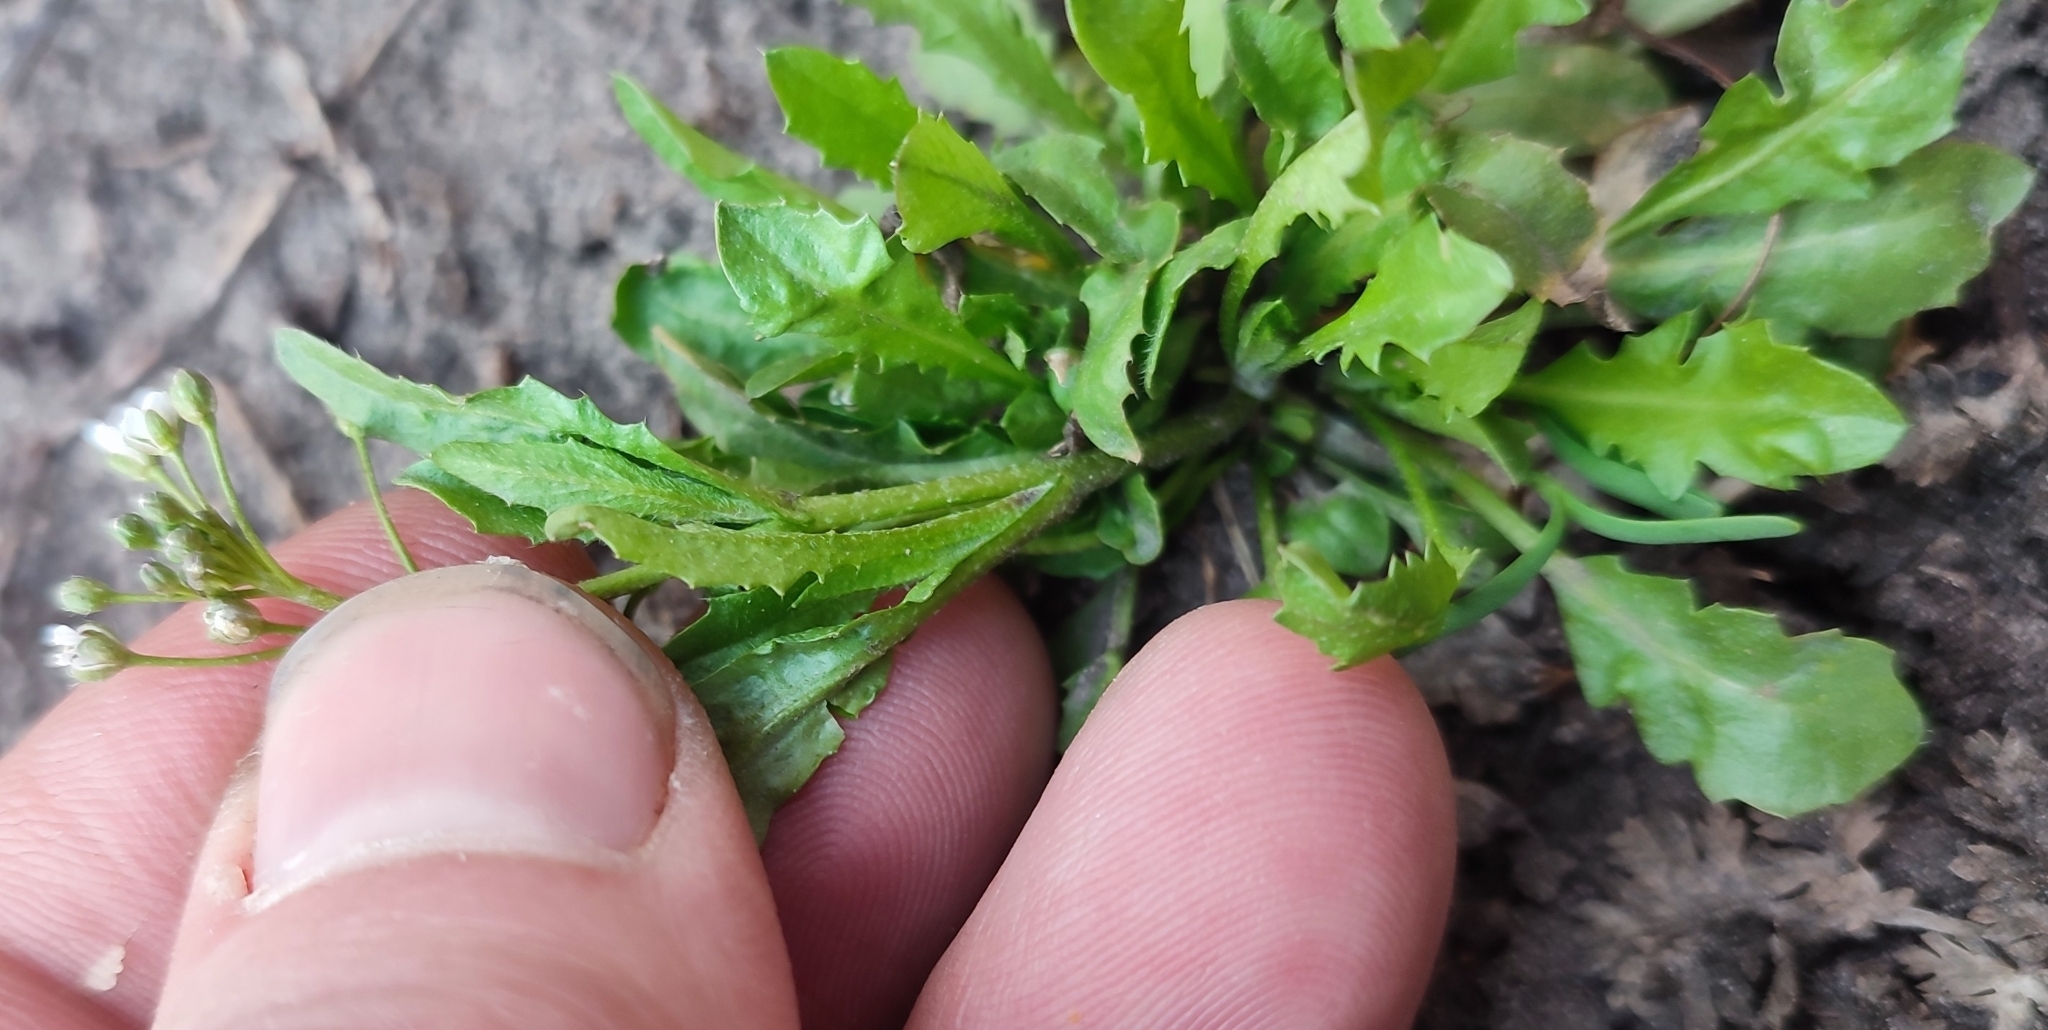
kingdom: Plantae
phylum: Tracheophyta
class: Magnoliopsida
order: Brassicales
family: Brassicaceae
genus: Capsella
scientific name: Capsella bursa-pastoris
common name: Shepherd's purse
